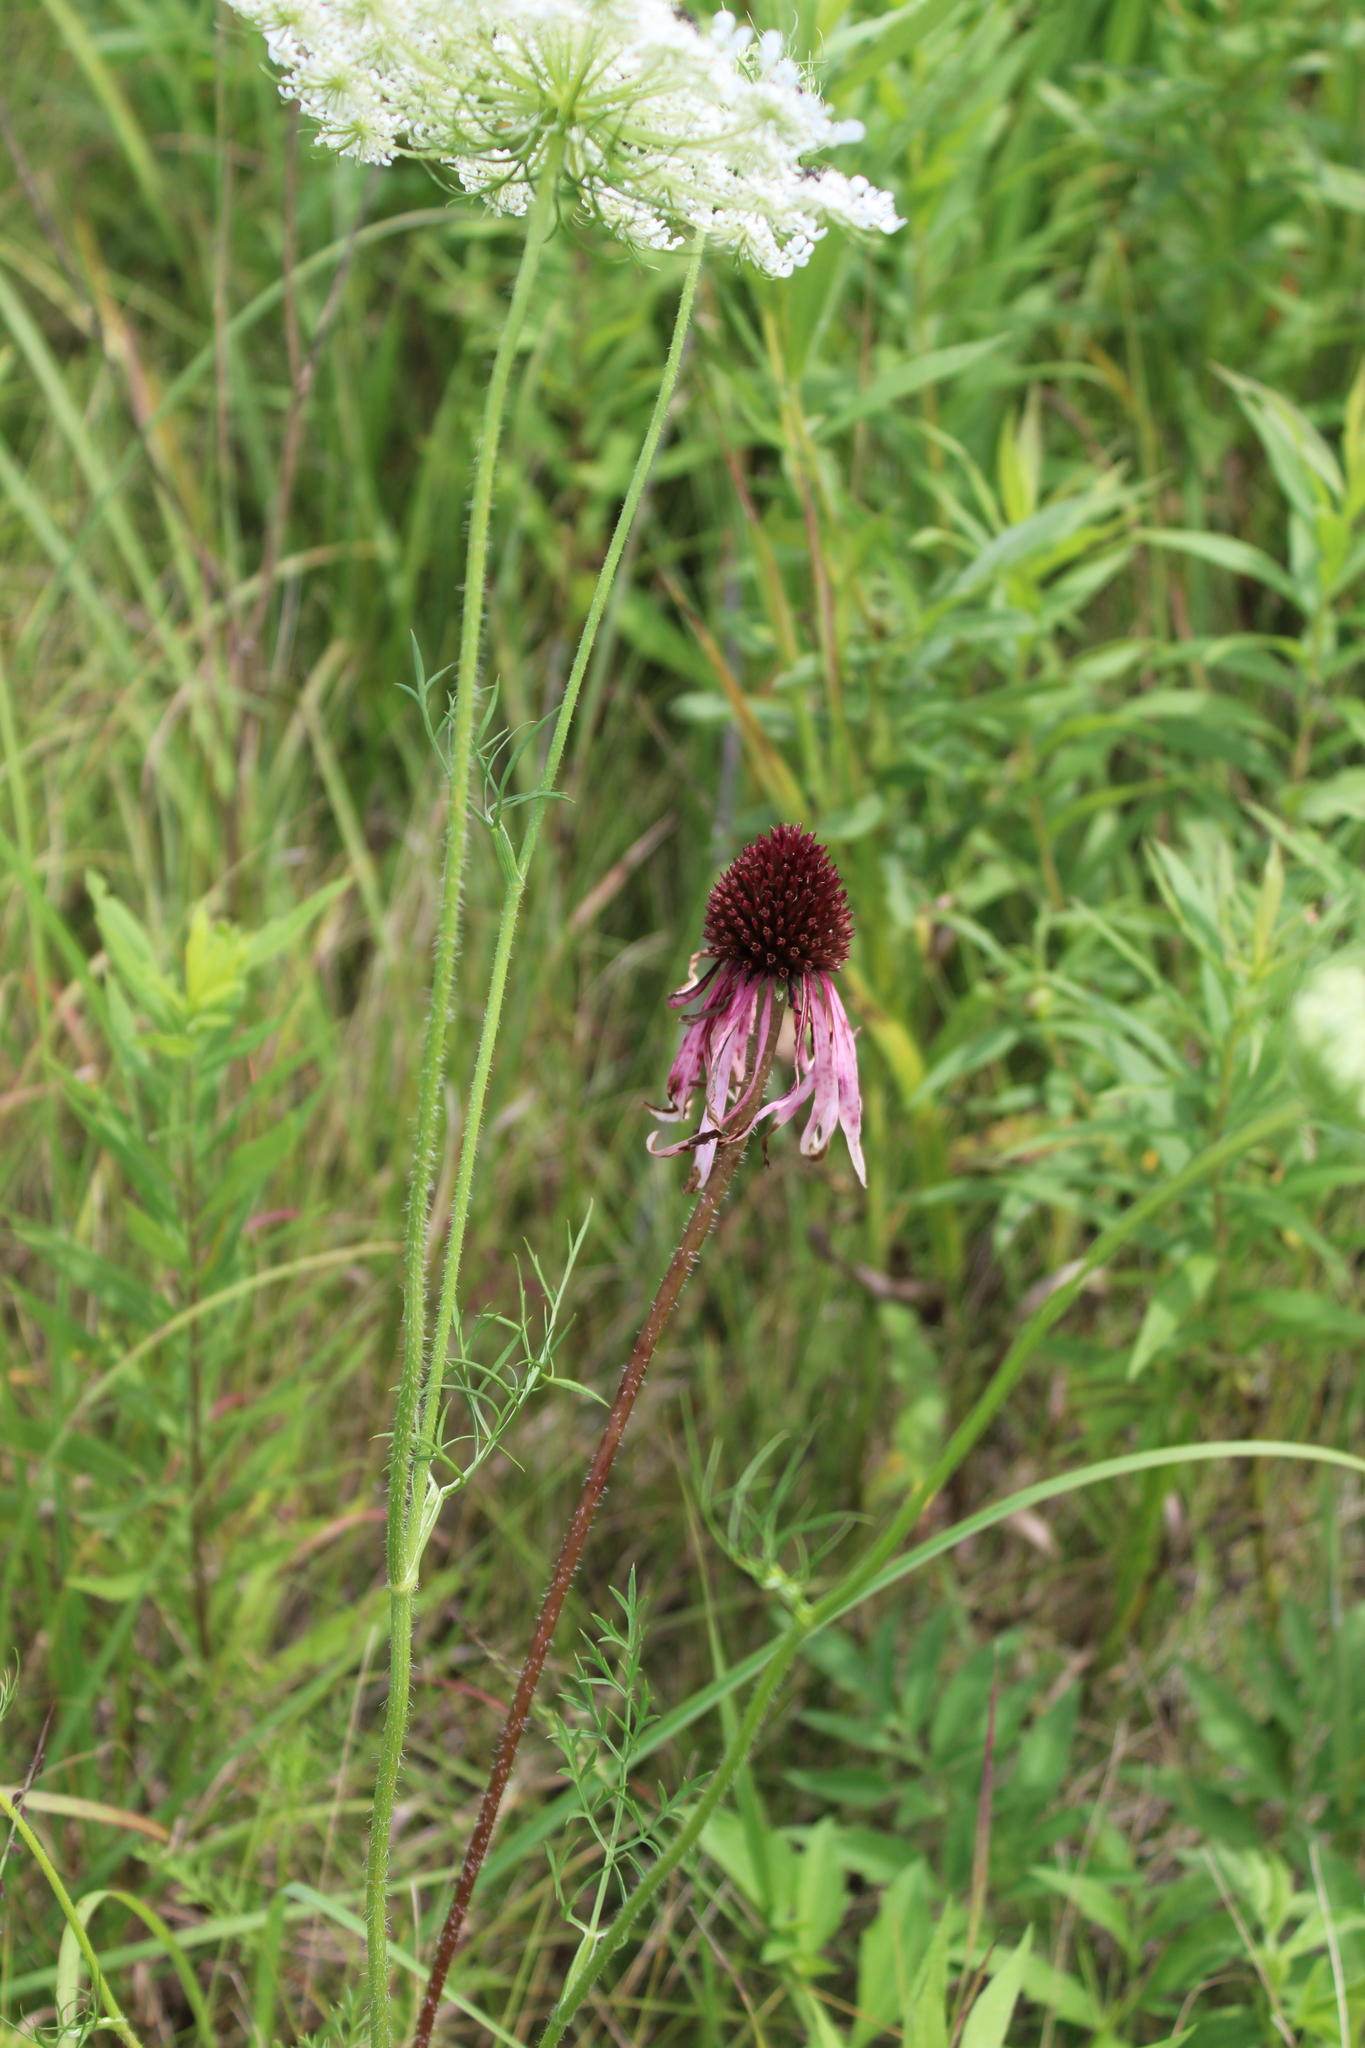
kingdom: Plantae
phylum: Tracheophyta
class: Magnoliopsida
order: Asterales
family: Asteraceae
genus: Echinacea
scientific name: Echinacea pallida
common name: Pale echinacea
